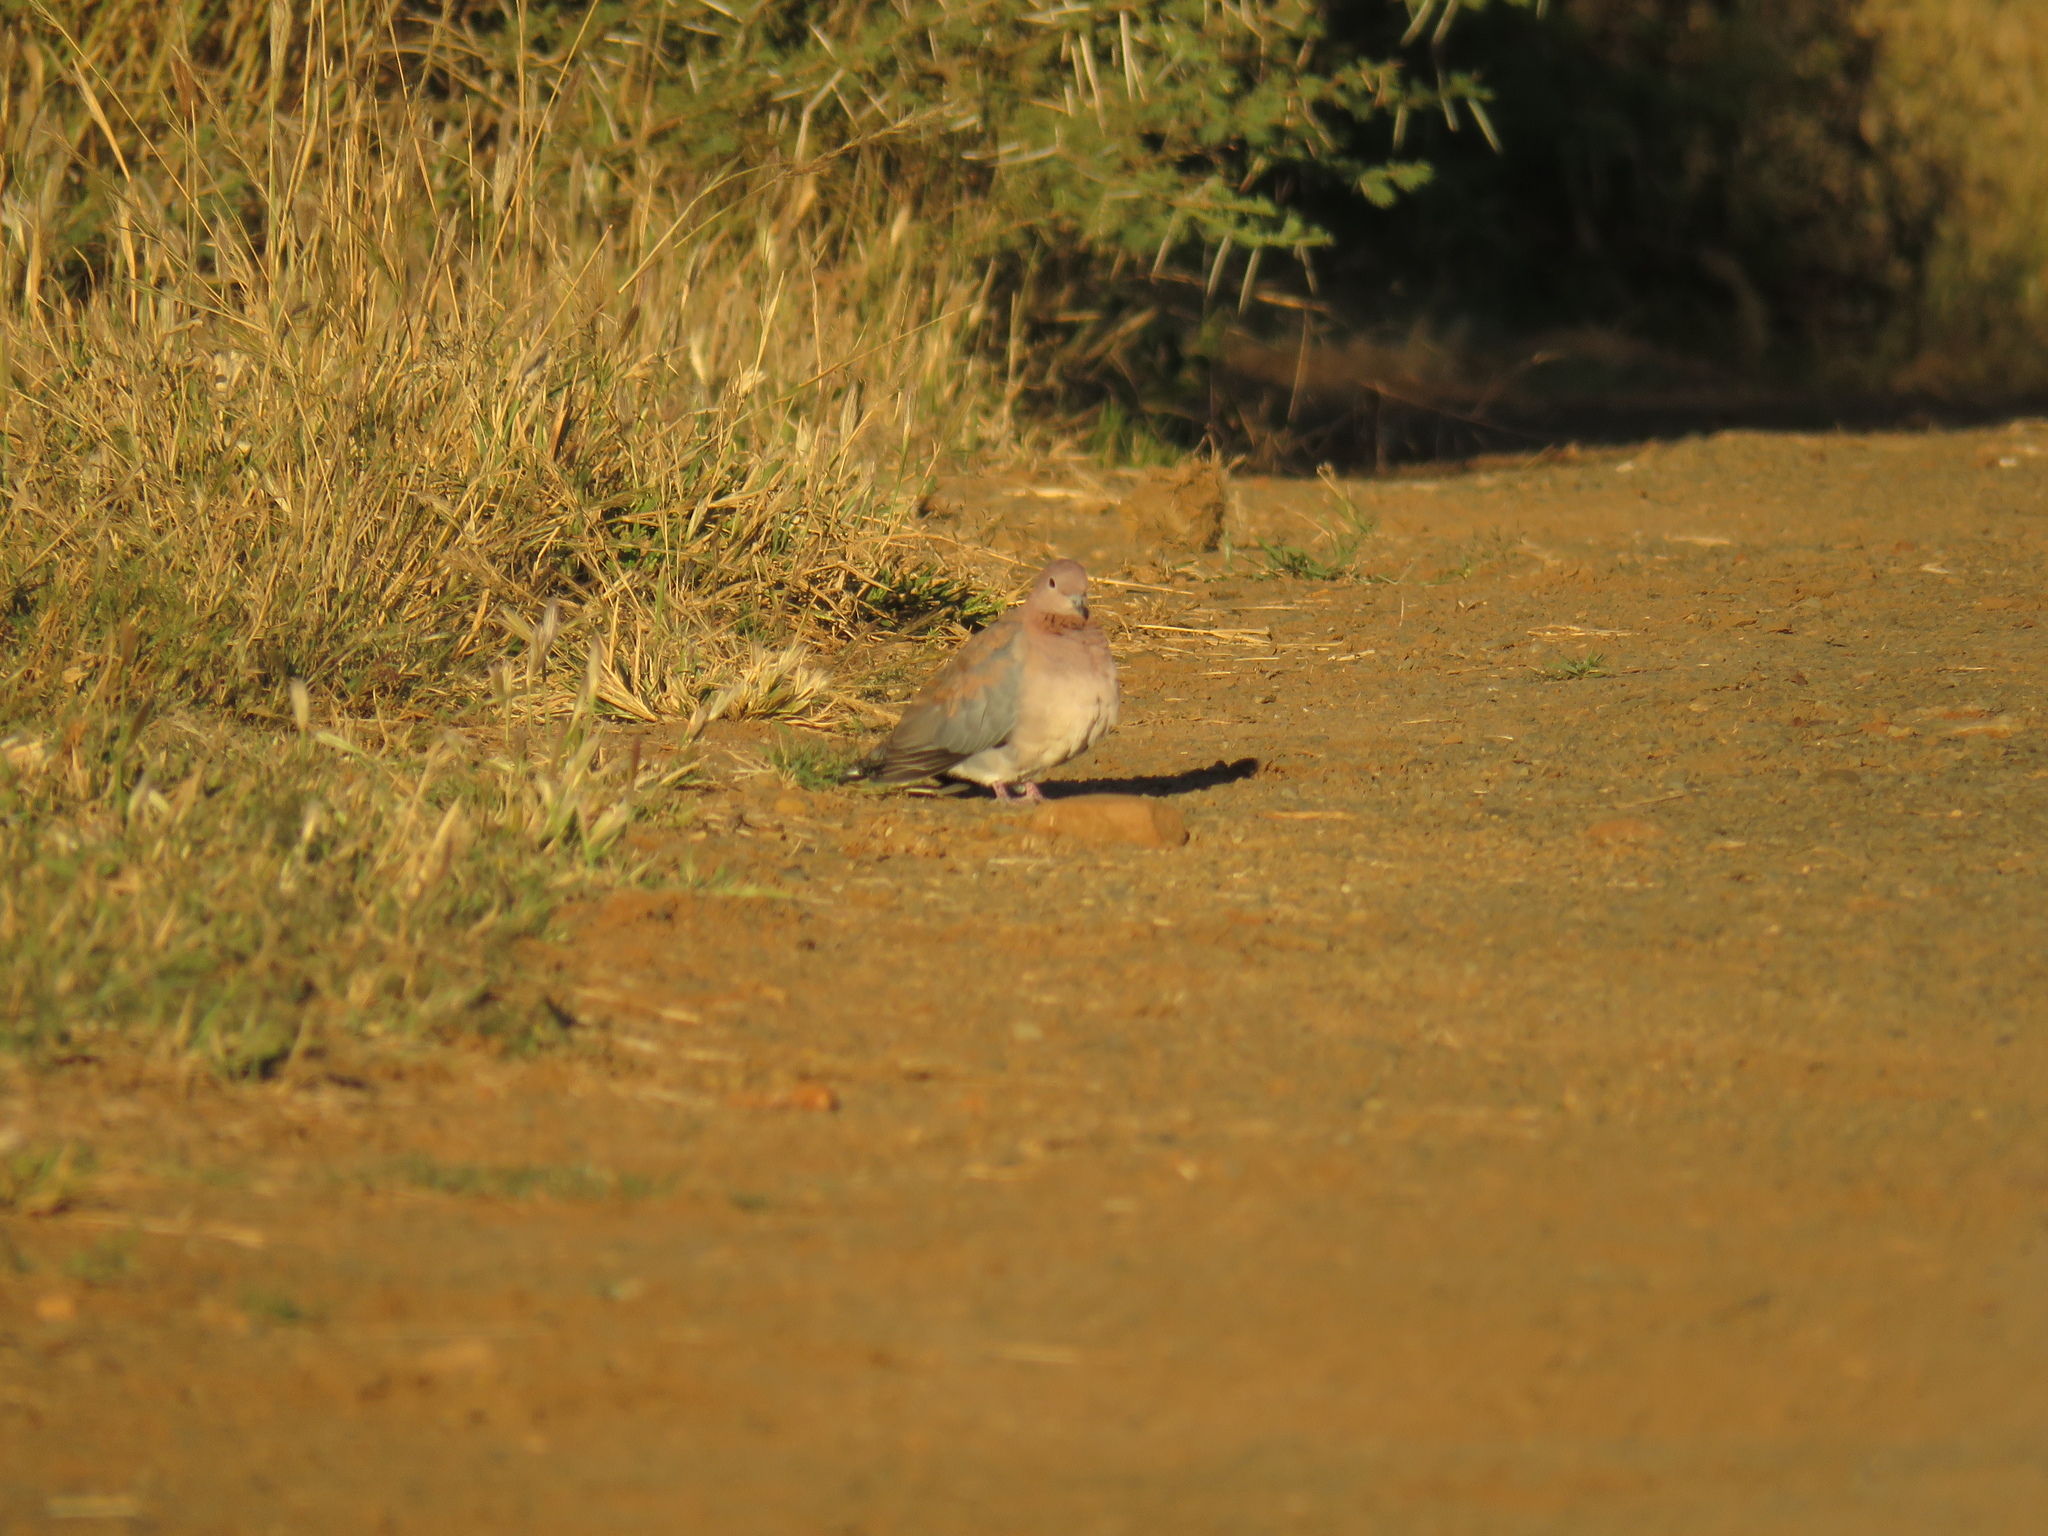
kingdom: Animalia
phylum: Chordata
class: Aves
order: Columbiformes
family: Columbidae
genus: Spilopelia
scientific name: Spilopelia senegalensis
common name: Laughing dove
